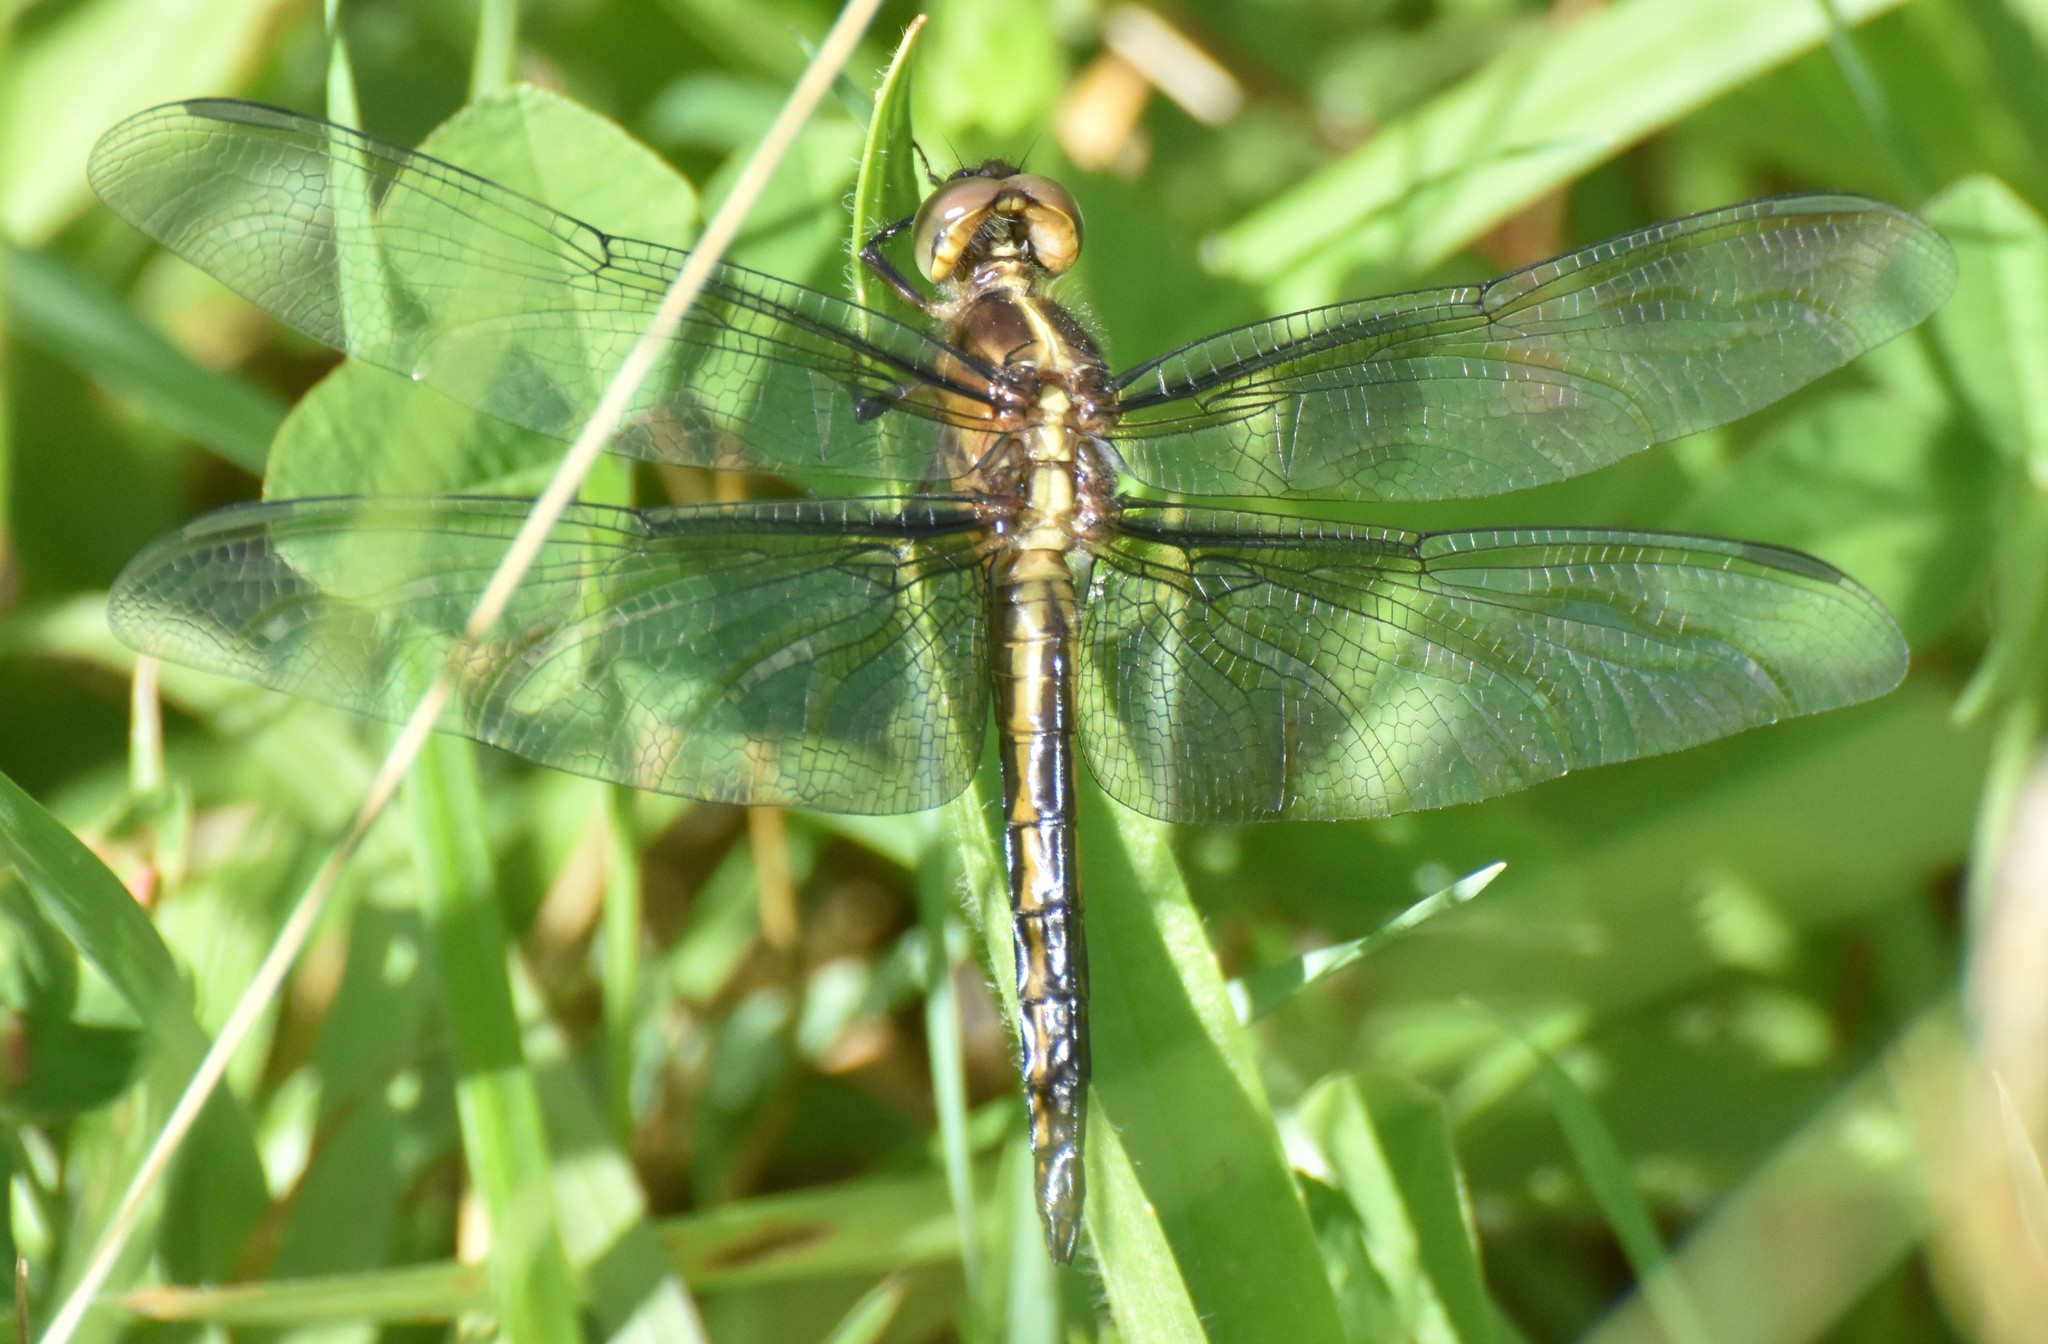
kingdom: Animalia
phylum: Arthropoda
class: Insecta
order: Odonata
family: Libellulidae
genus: Libellula
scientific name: Libellula luctuosa
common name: Widow skimmer
